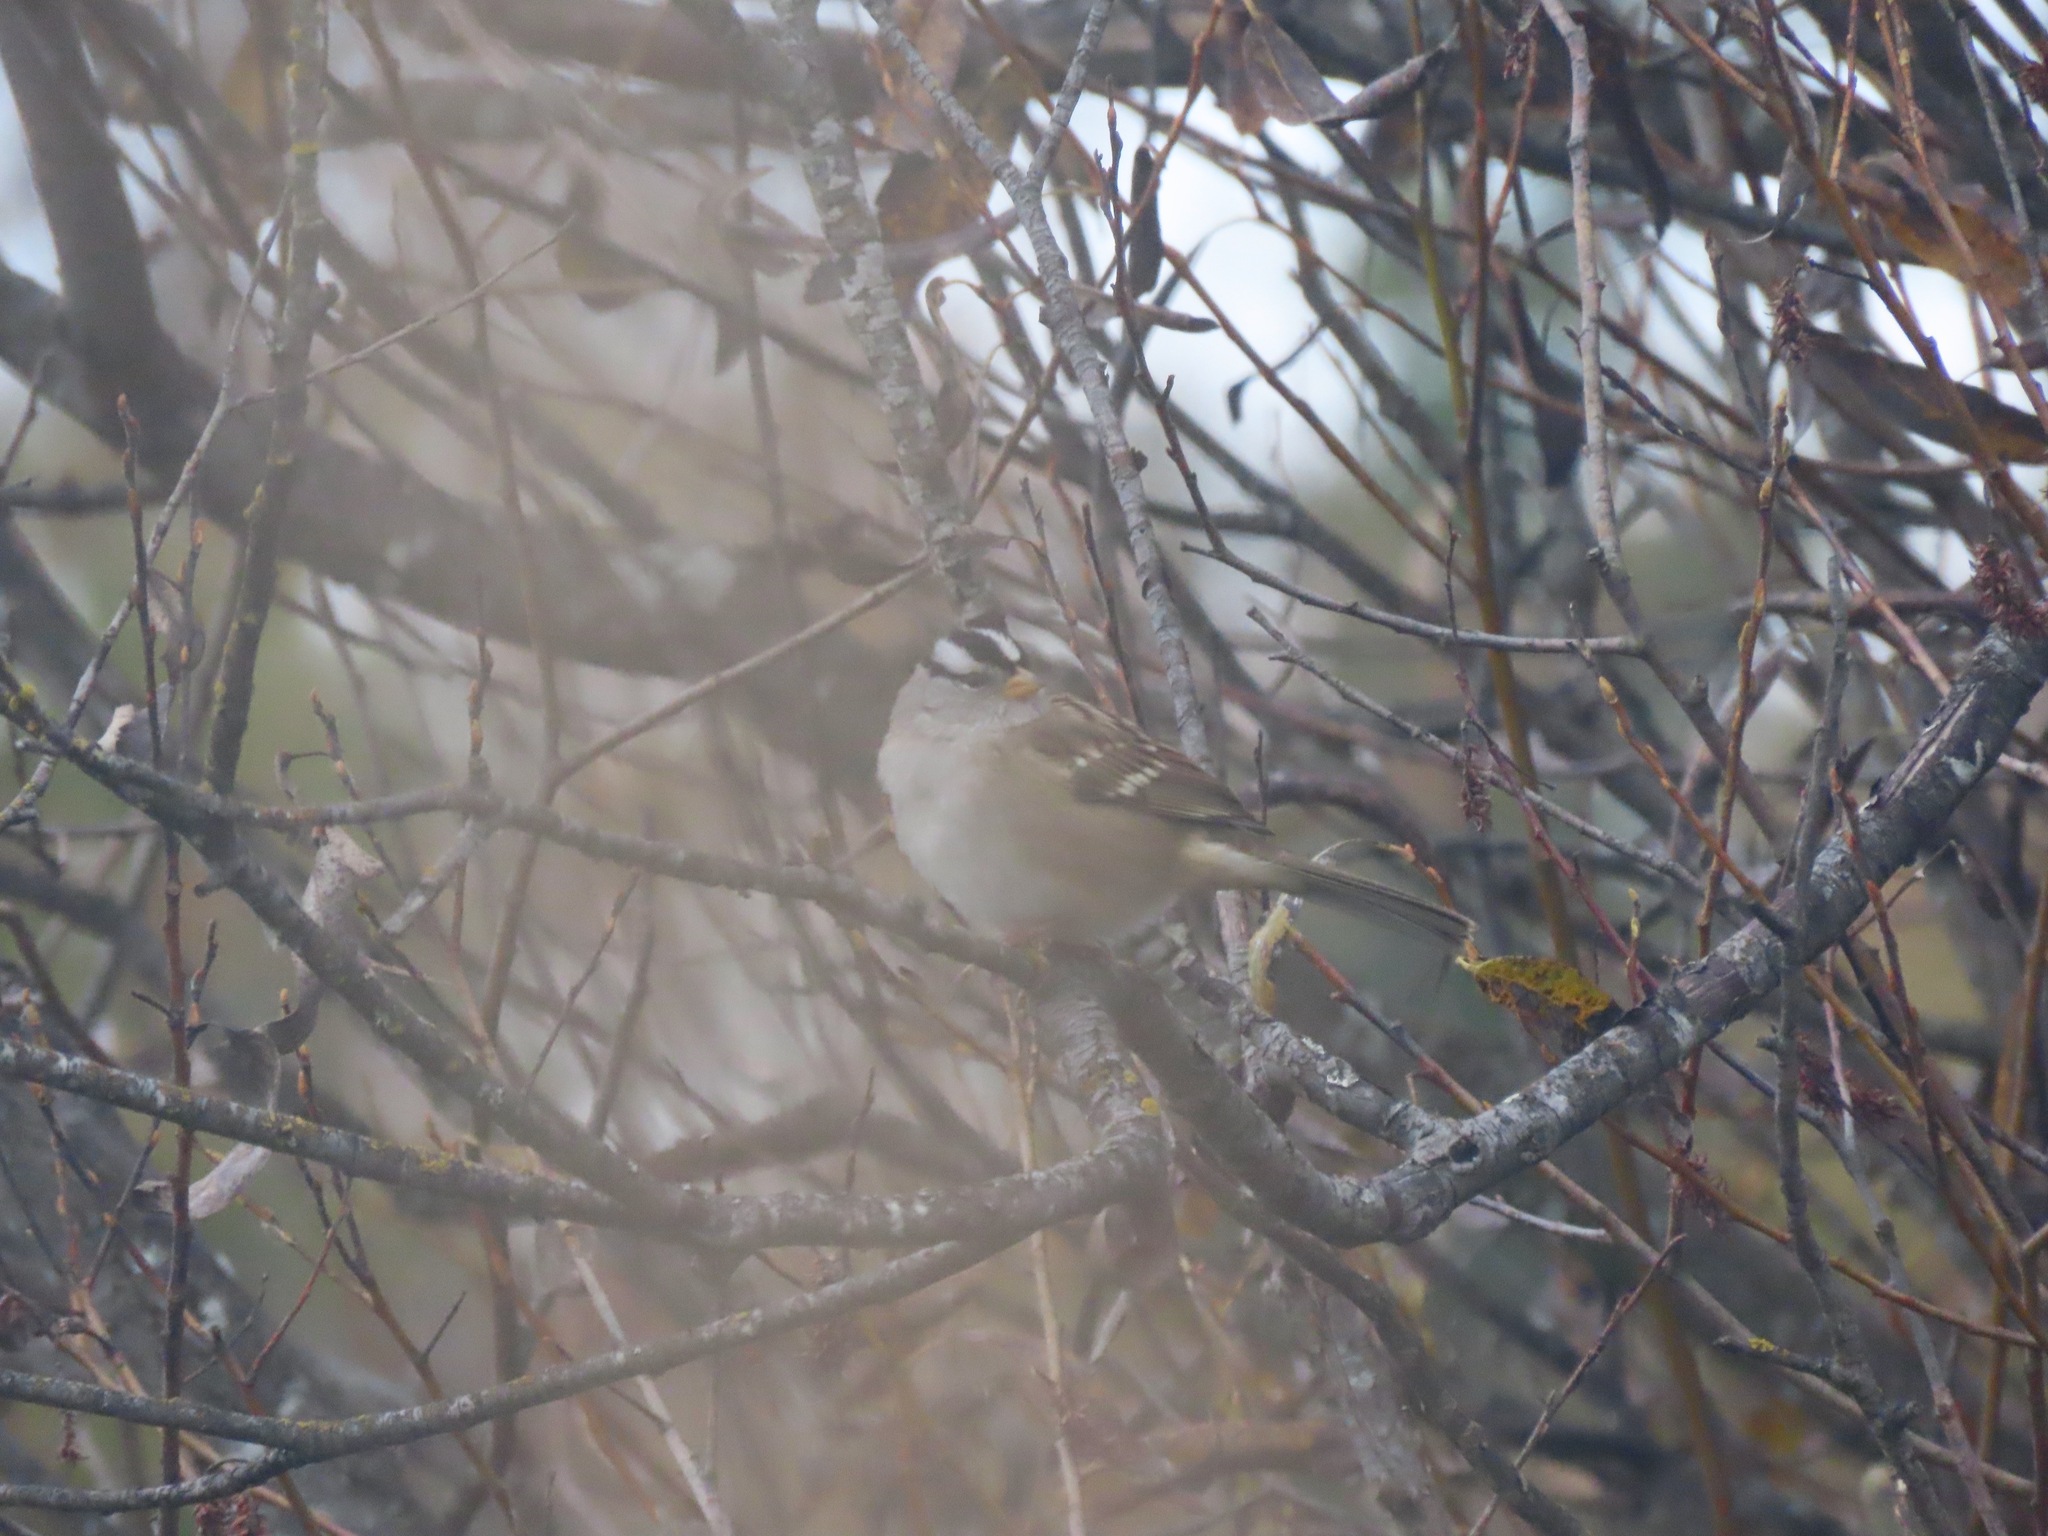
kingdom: Animalia
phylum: Chordata
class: Aves
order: Passeriformes
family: Passerellidae
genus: Zonotrichia
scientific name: Zonotrichia leucophrys
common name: White-crowned sparrow
